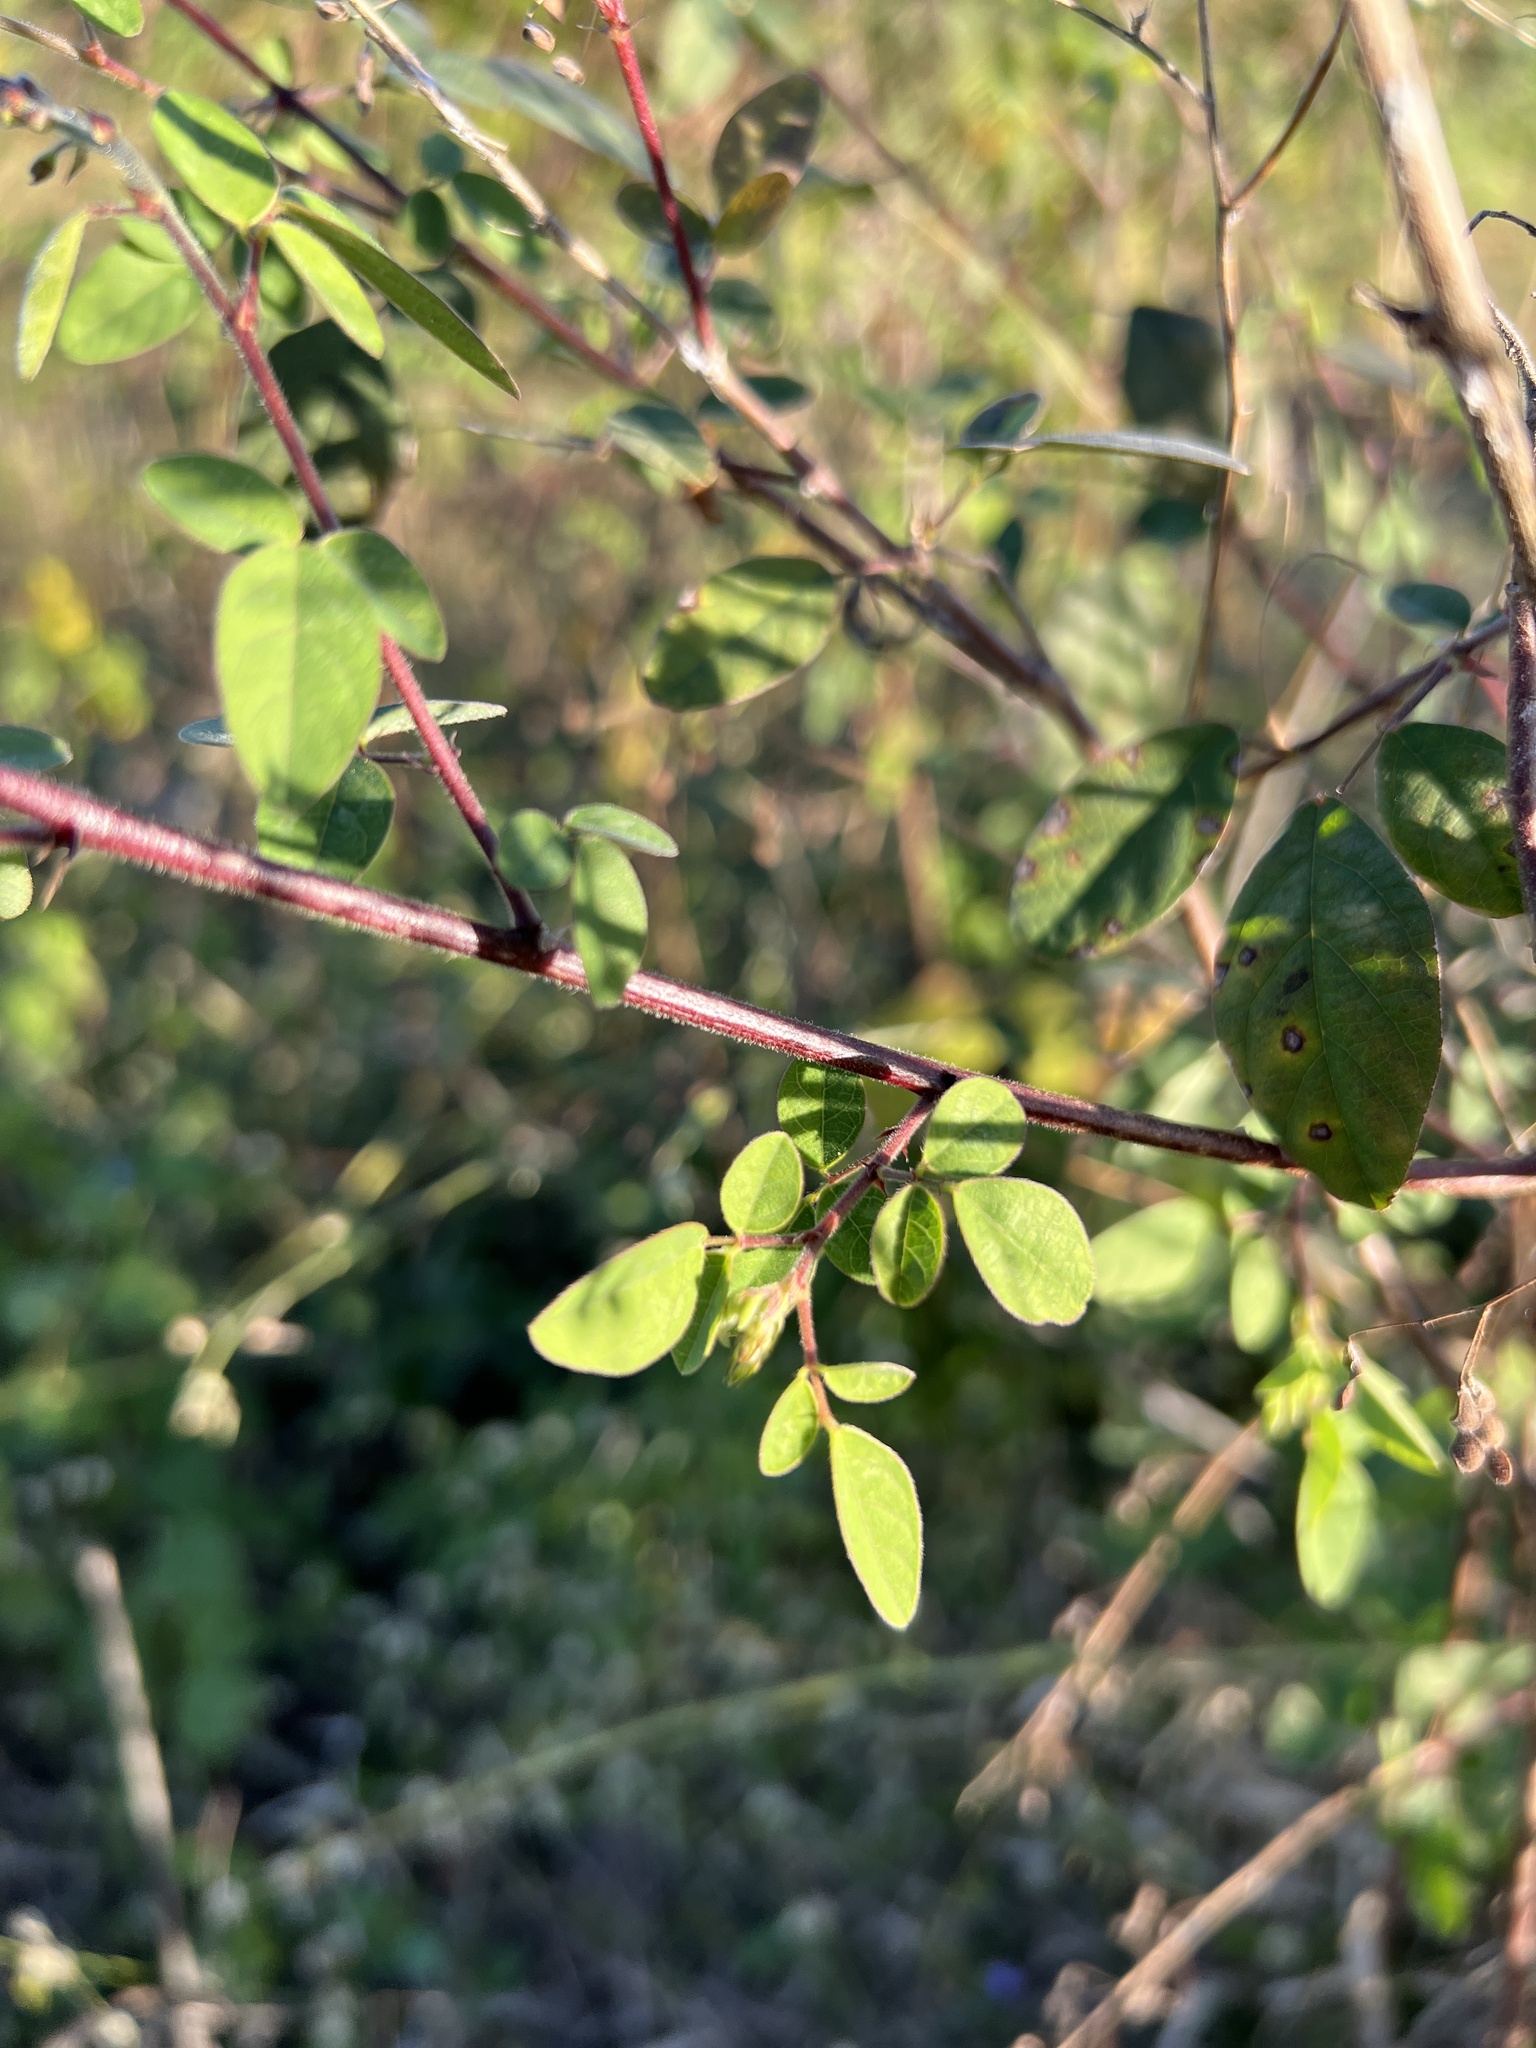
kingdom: Plantae
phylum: Tracheophyta
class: Magnoliopsida
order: Fabales
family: Fabaceae
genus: Desmodium
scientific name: Desmodium tortuosum
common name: Dixie ticktrefoil
